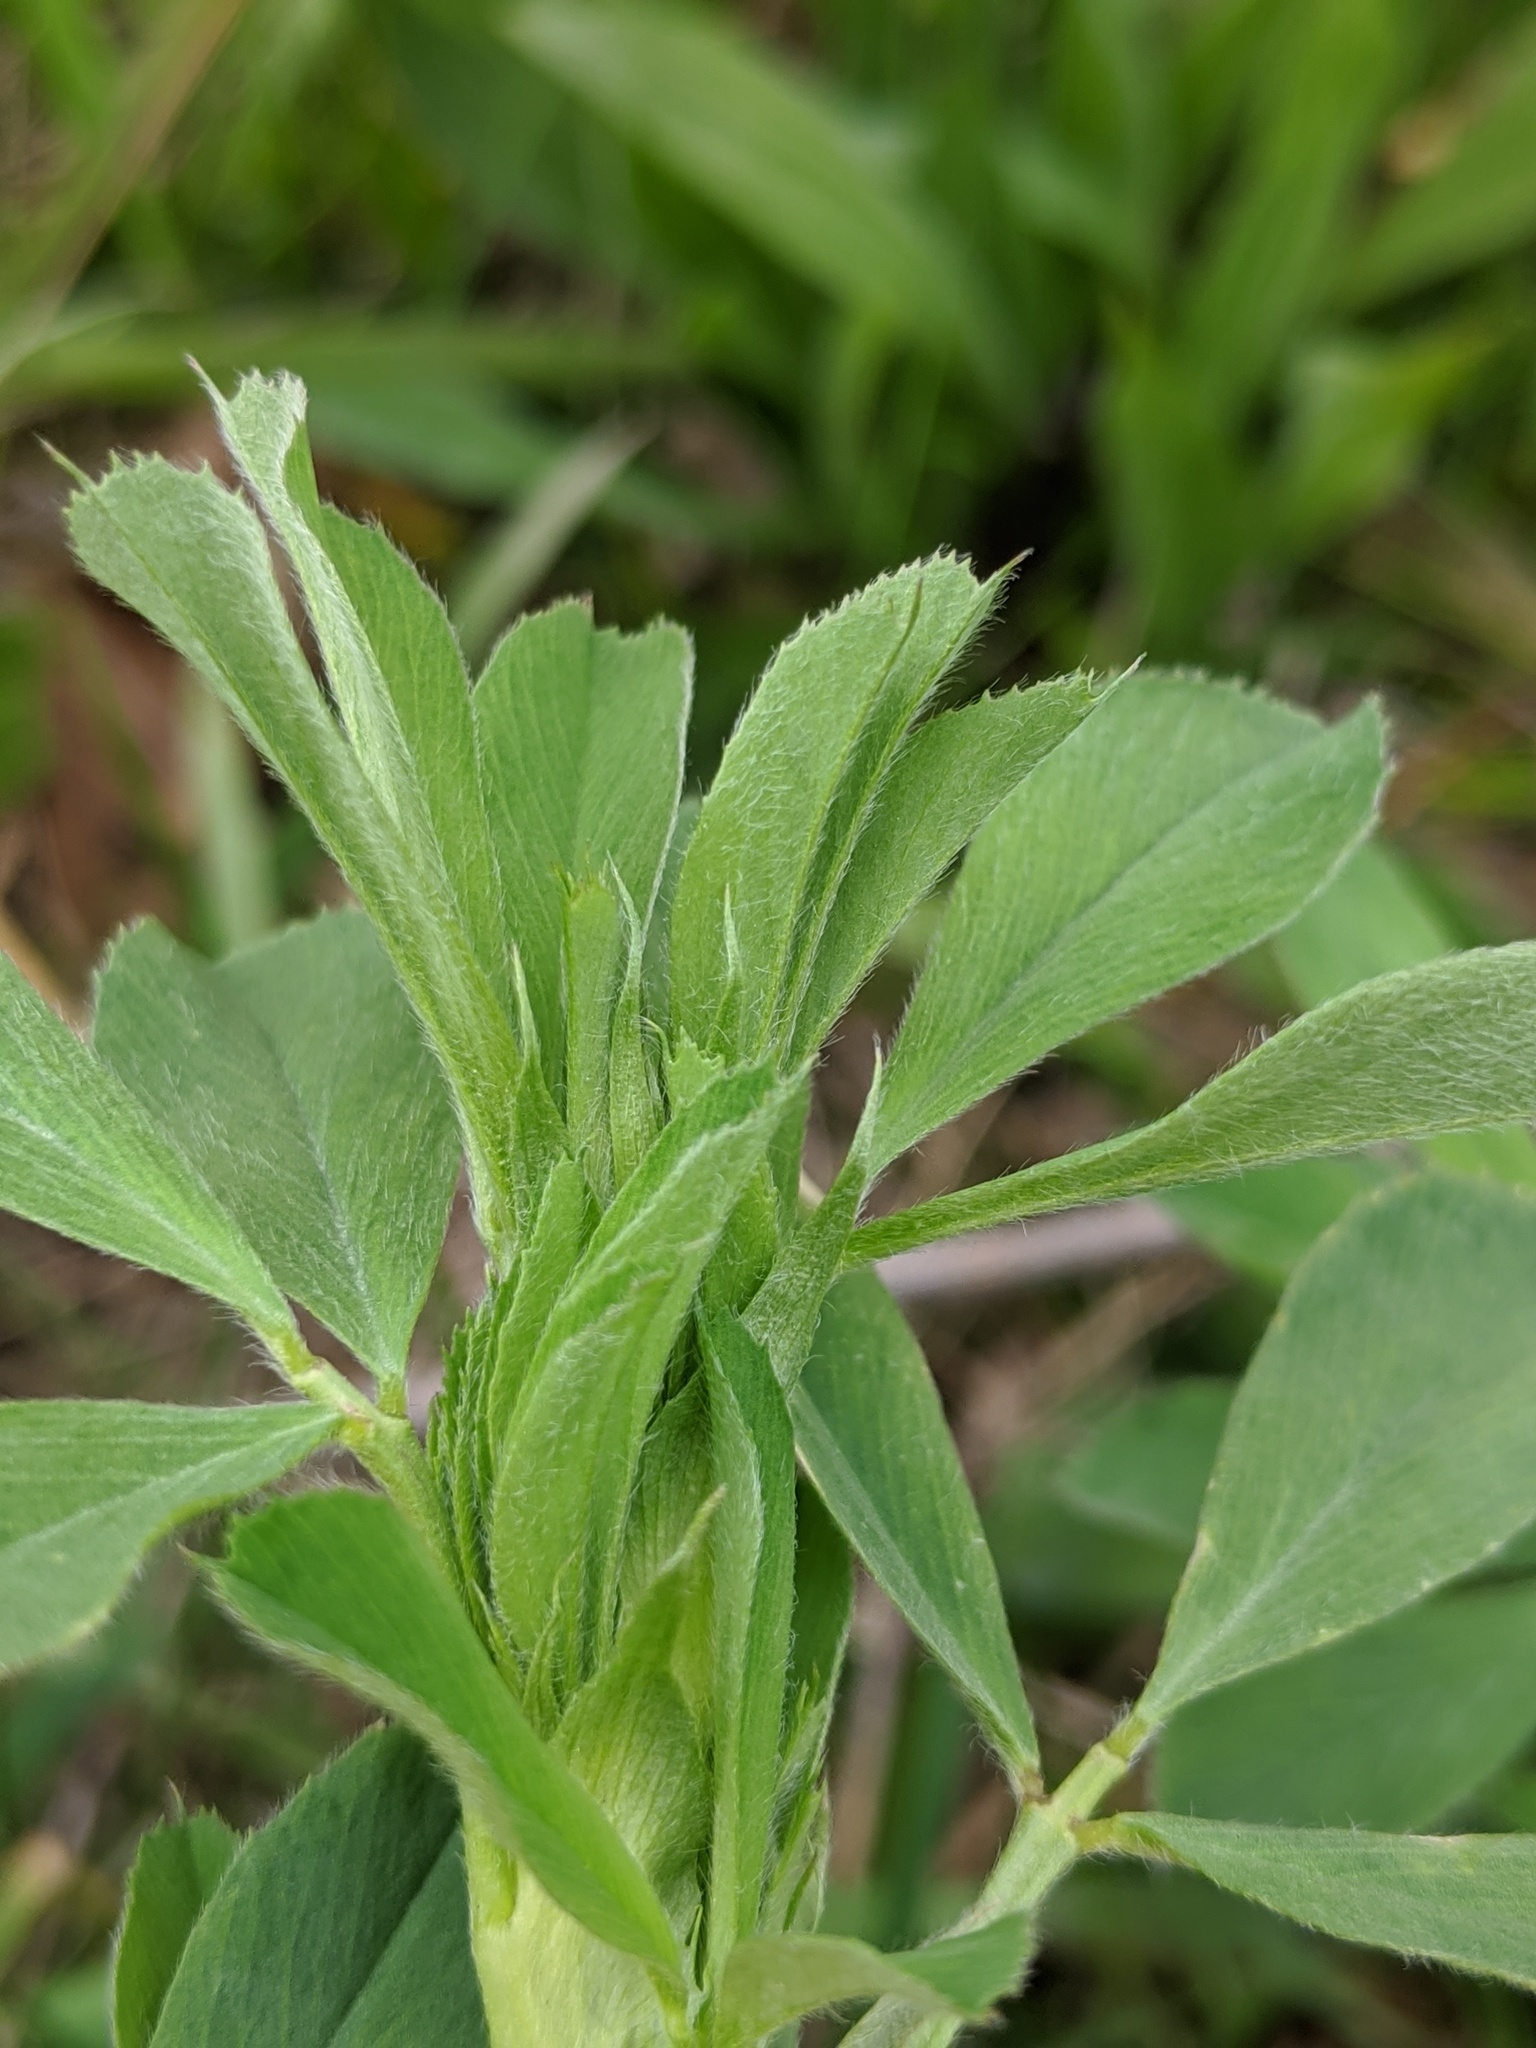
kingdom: Plantae
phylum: Tracheophyta
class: Magnoliopsida
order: Fabales
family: Fabaceae
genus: Medicago
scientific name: Medicago sativa
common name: Alfalfa
